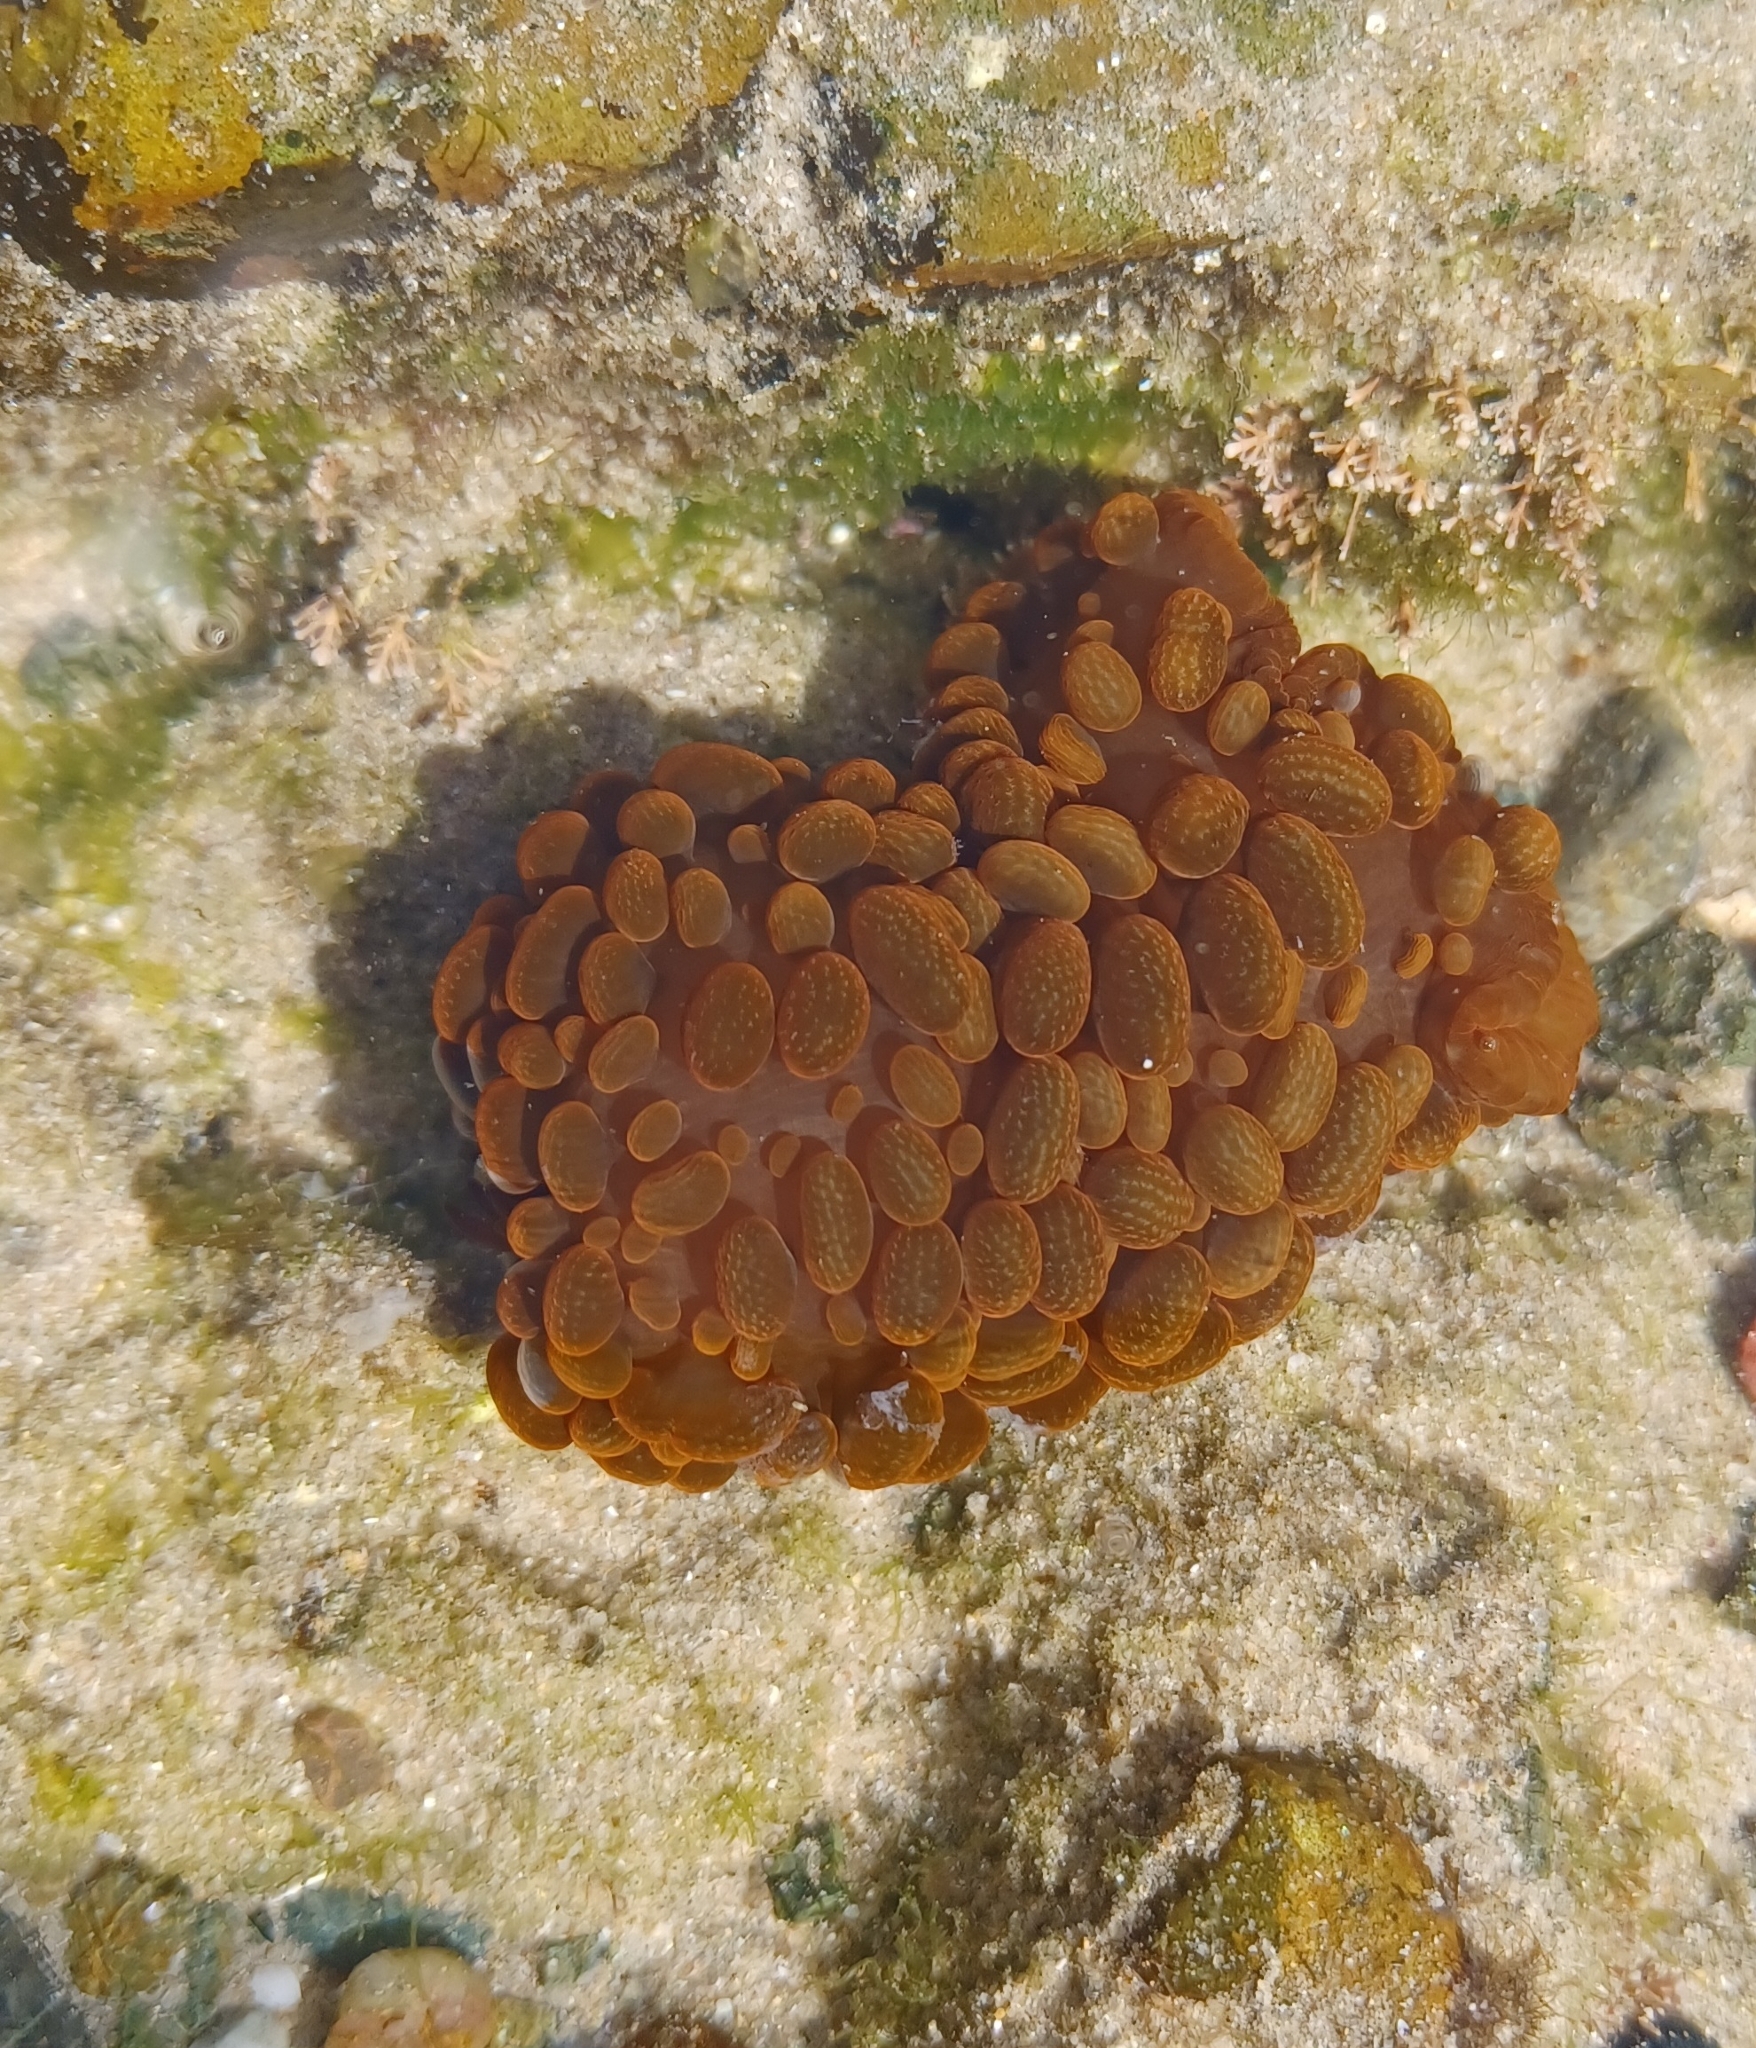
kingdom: Animalia
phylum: Cnidaria
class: Anthozoa
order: Actiniaria
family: Actiniidae
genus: Phlyctenactis
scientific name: Phlyctenactis tuberculosa
